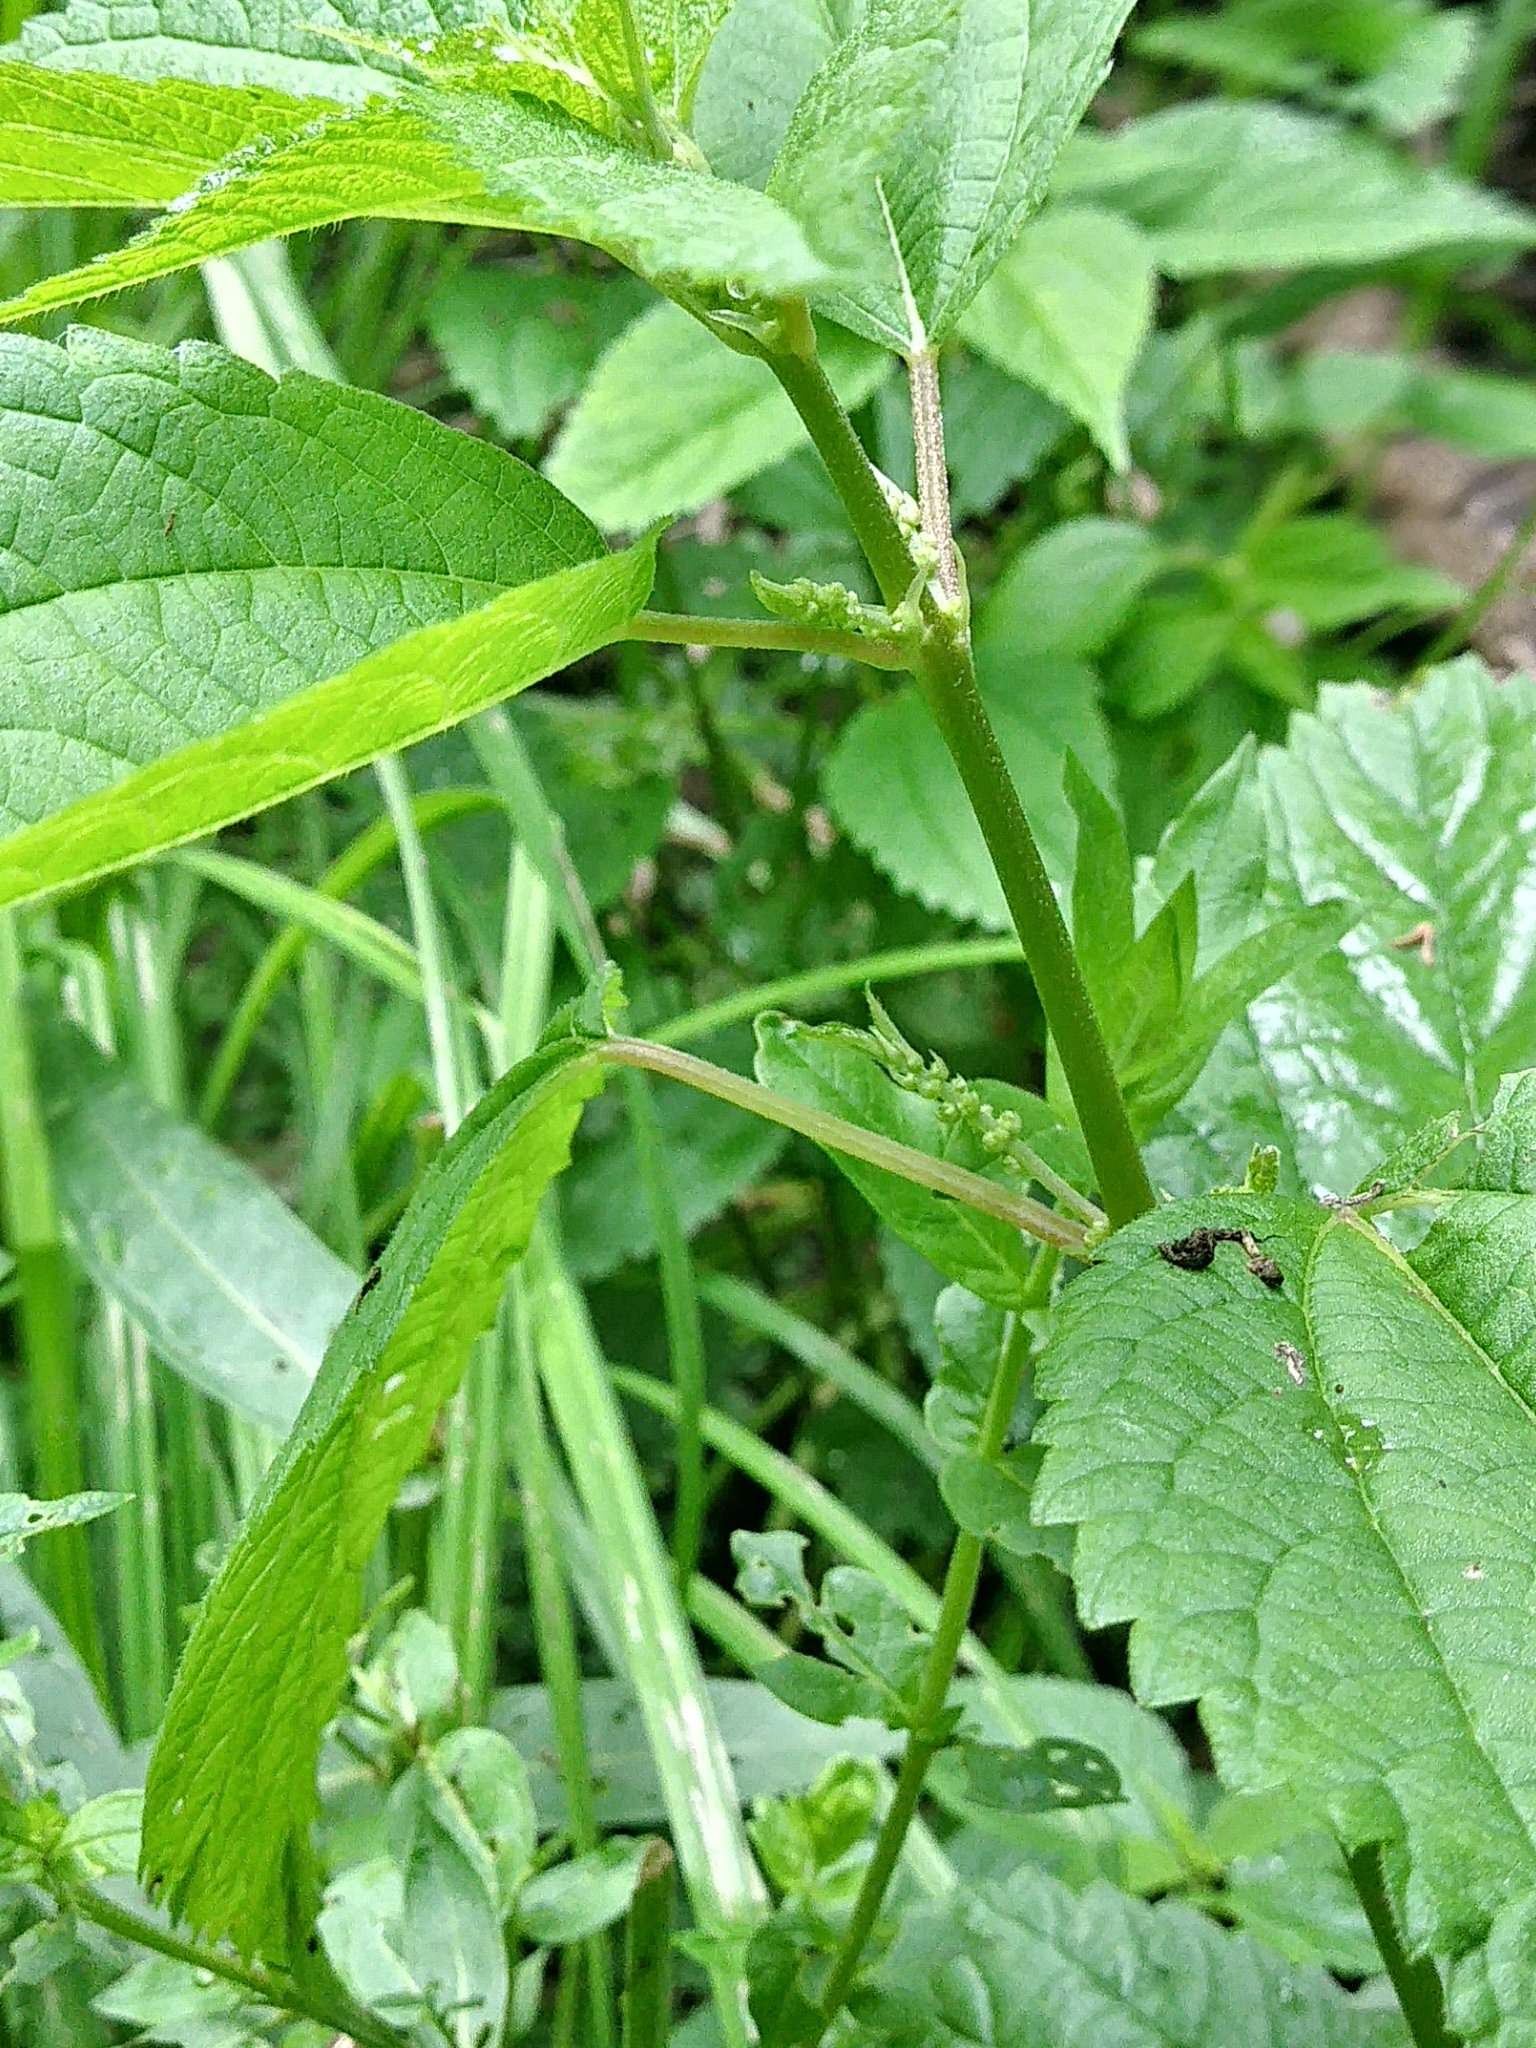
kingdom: Plantae
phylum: Tracheophyta
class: Magnoliopsida
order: Rosales
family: Urticaceae
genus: Boehmeria
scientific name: Boehmeria cylindrica
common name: Bog-hemp
